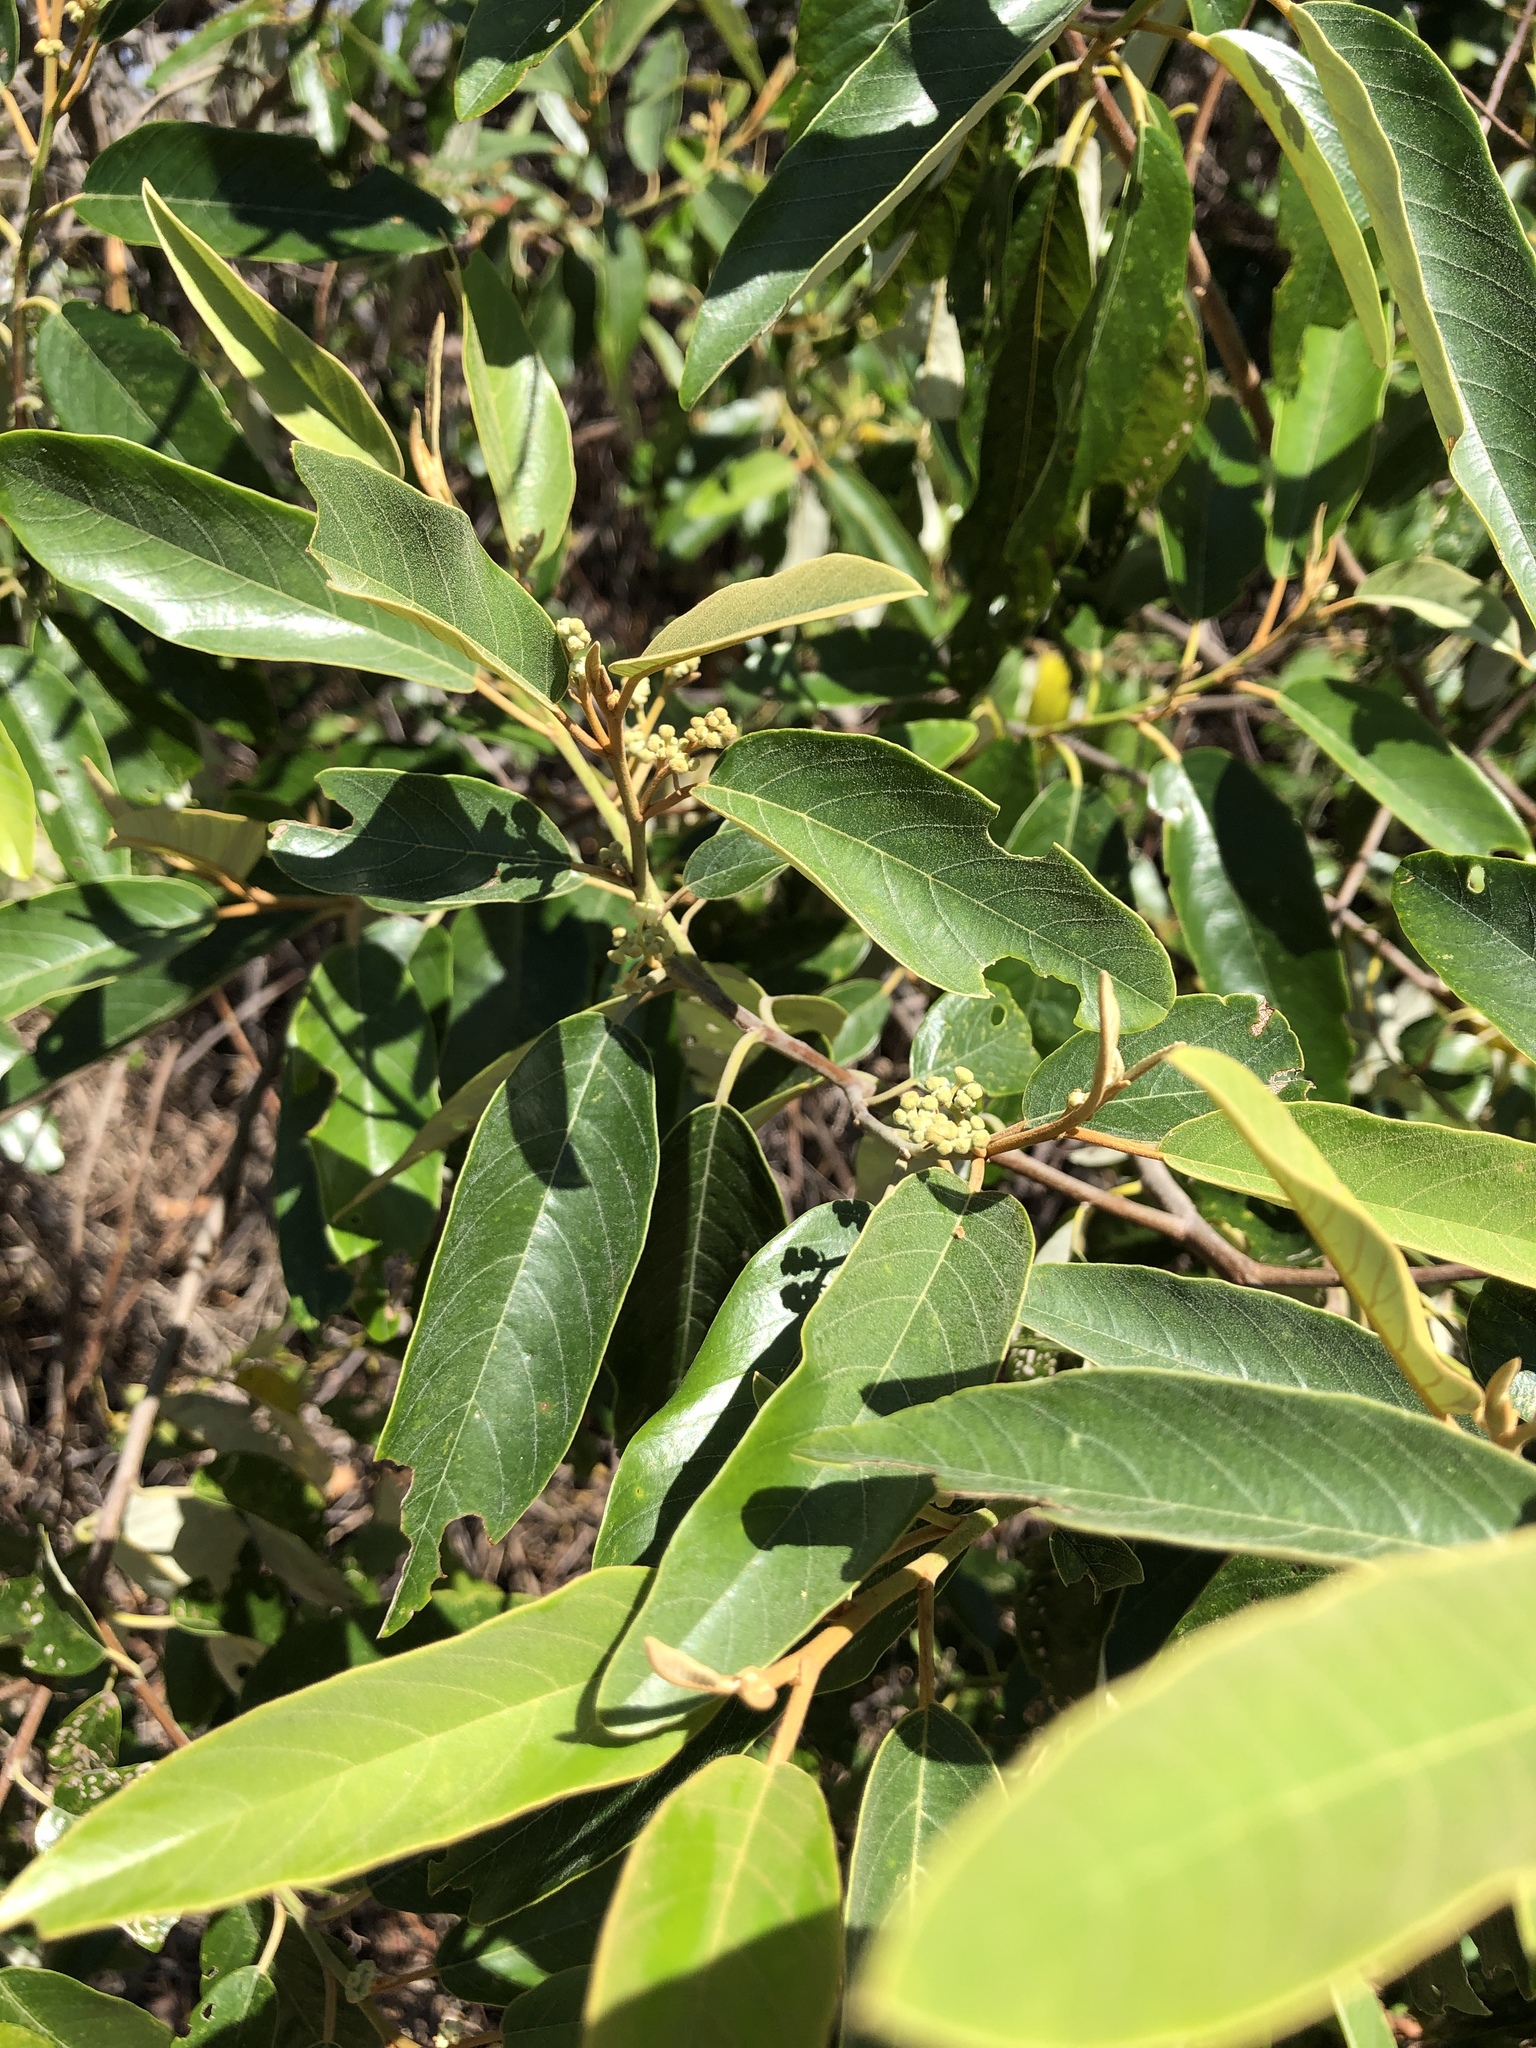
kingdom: Plantae
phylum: Tracheophyta
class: Magnoliopsida
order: Rosales
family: Rhamnaceae
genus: Alphitonia
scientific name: Alphitonia excelsa
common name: Red ash
